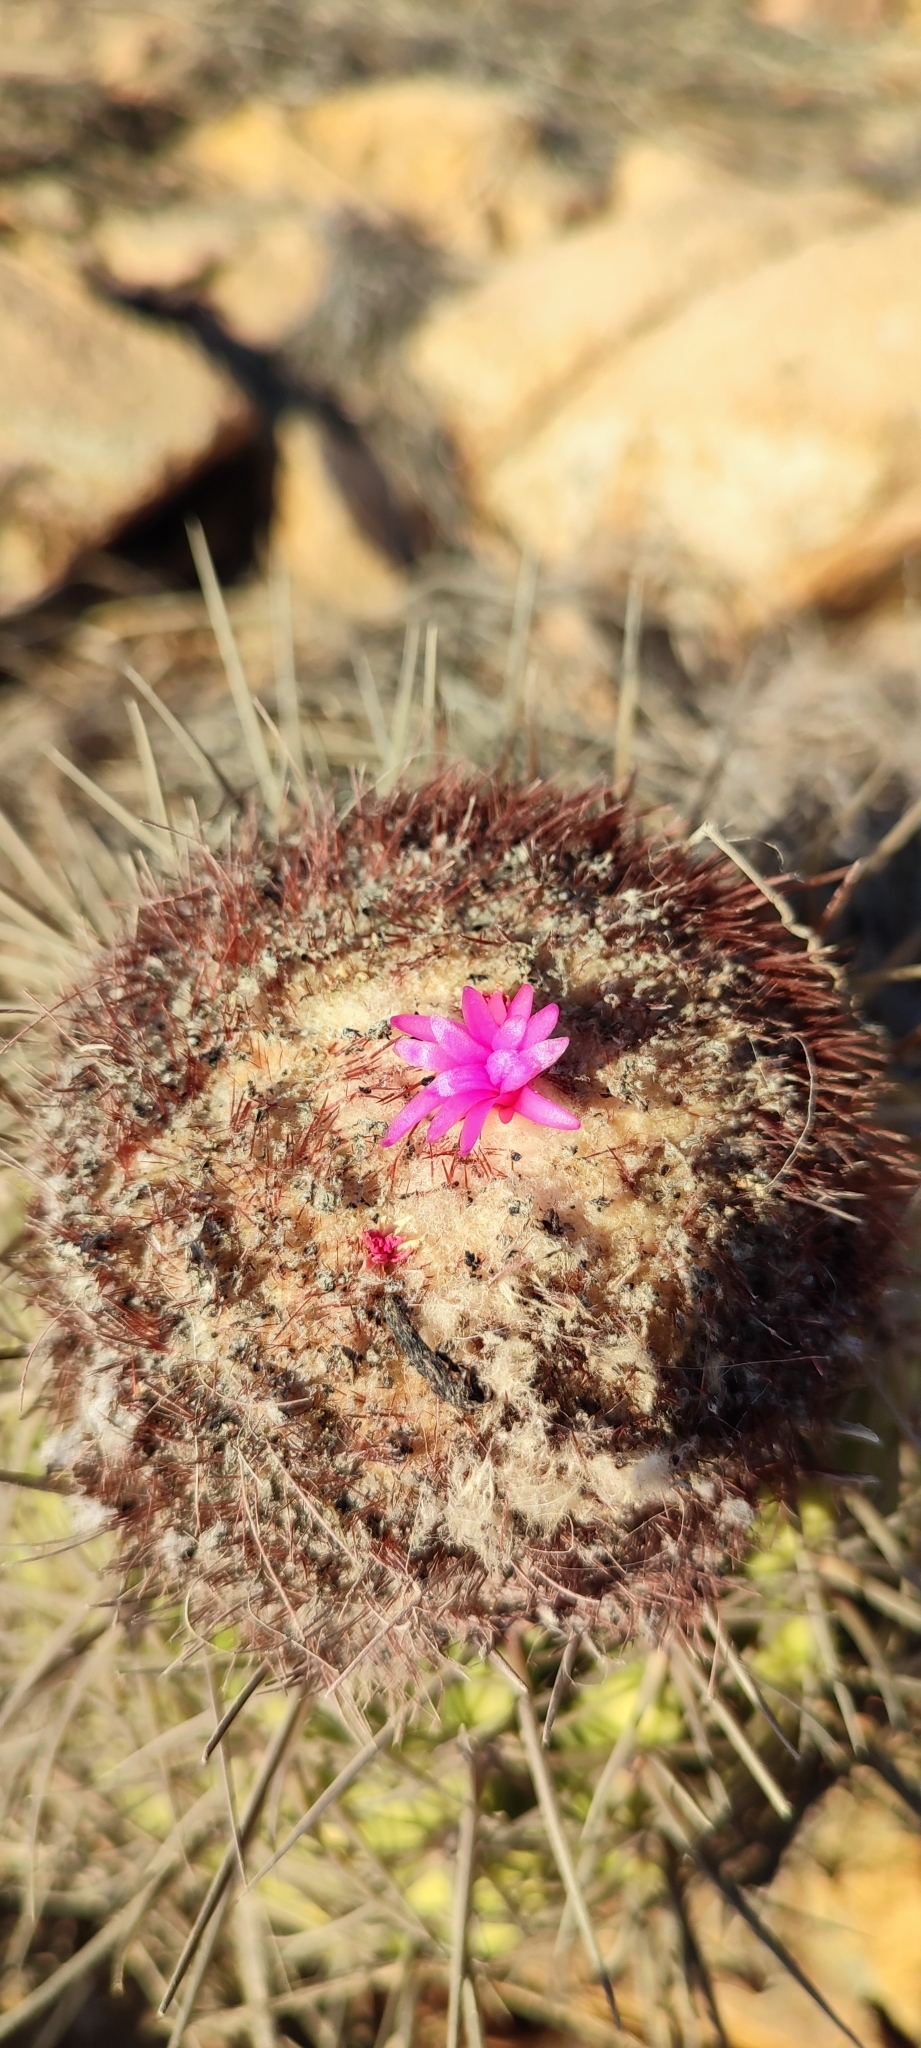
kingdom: Plantae
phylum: Tracheophyta
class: Magnoliopsida
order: Caryophyllales
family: Cactaceae
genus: Melocactus
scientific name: Melocactus curvispinus
